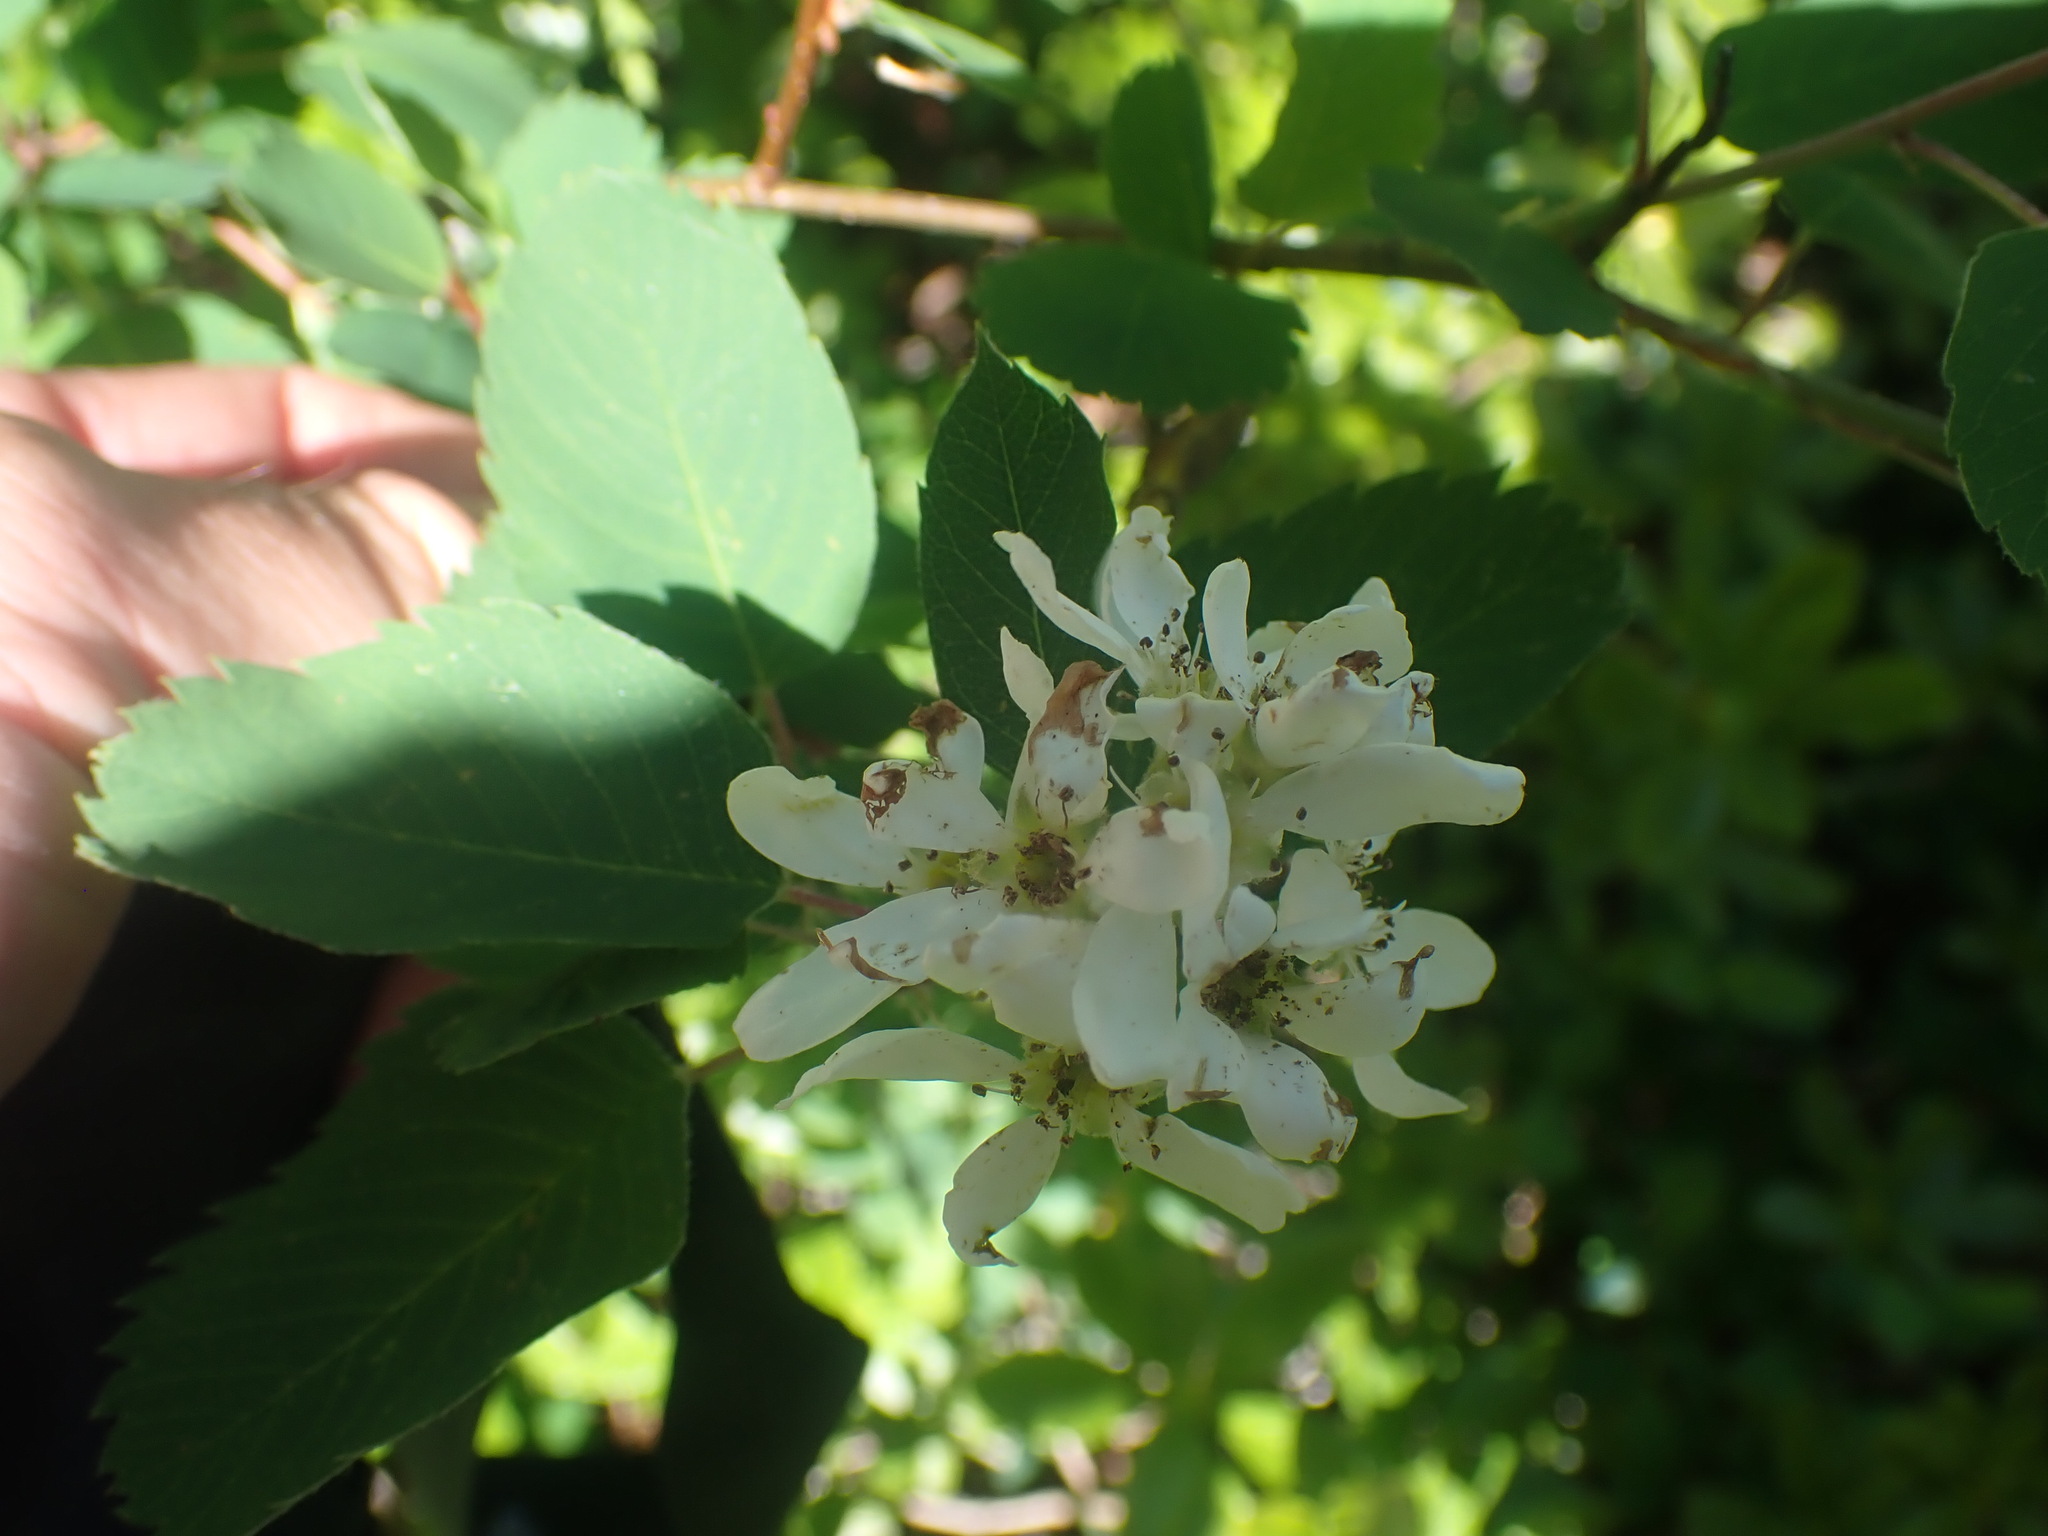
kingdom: Plantae
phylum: Tracheophyta
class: Magnoliopsida
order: Rosales
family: Rosaceae
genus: Amelanchier
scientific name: Amelanchier alnifolia
